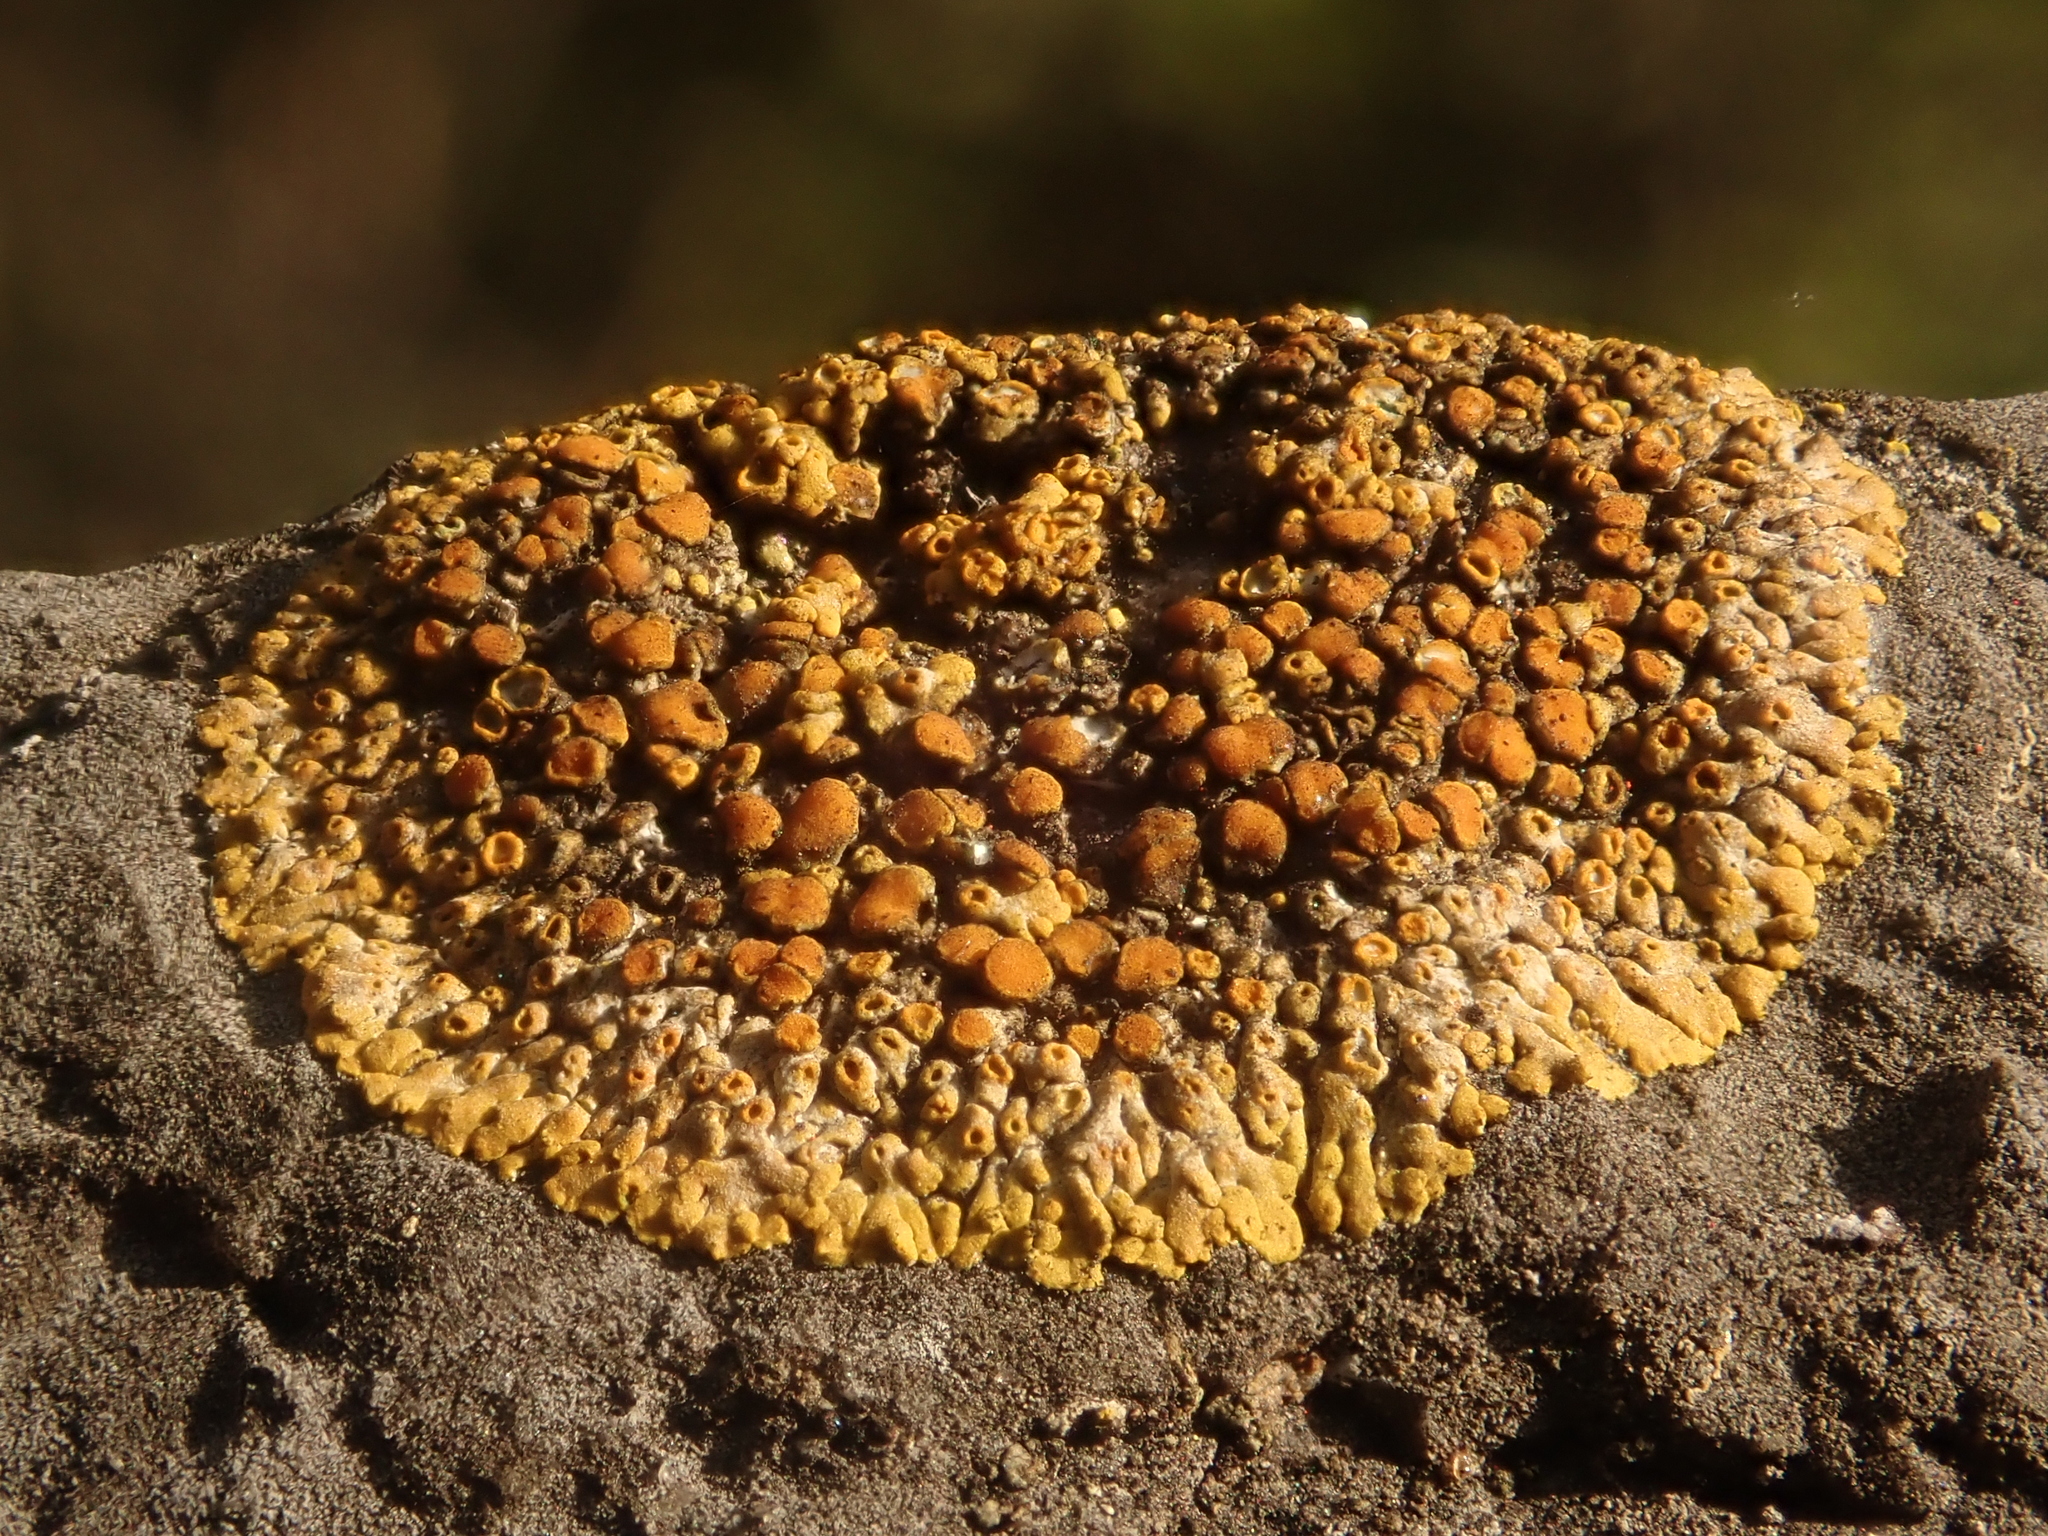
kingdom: Fungi
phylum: Ascomycota
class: Lecanoromycetes
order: Teloschistales
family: Teloschistaceae
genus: Calogaya
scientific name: Calogaya pusilla
